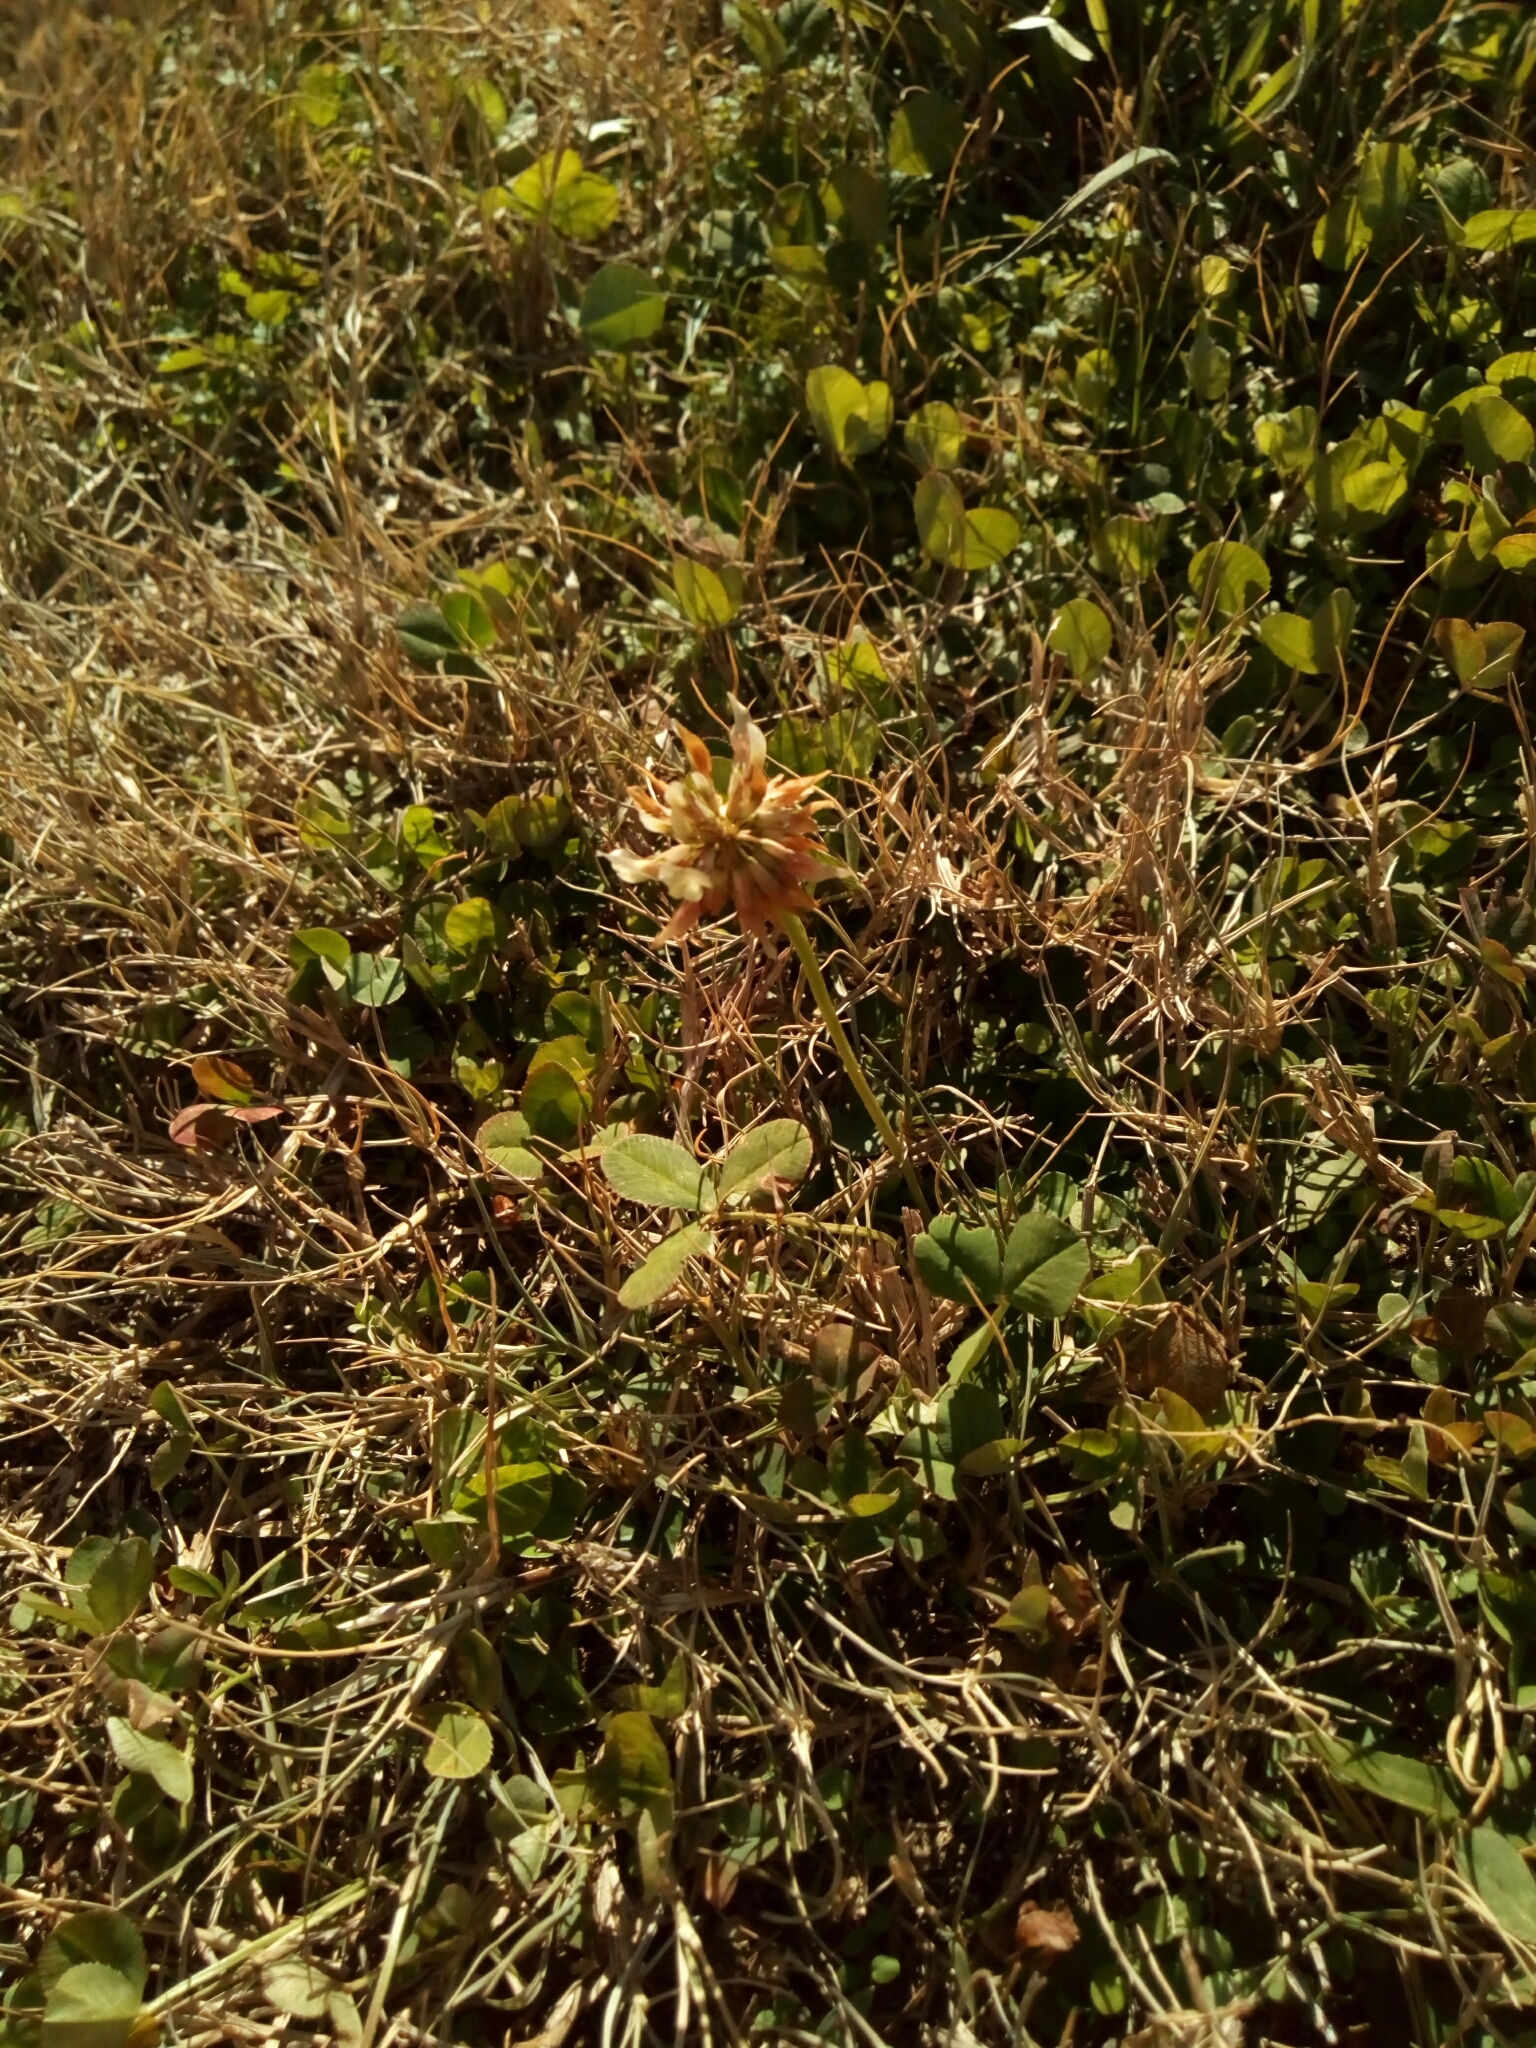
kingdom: Plantae
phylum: Tracheophyta
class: Magnoliopsida
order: Fabales
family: Fabaceae
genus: Trifolium
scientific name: Trifolium repens
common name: White clover
